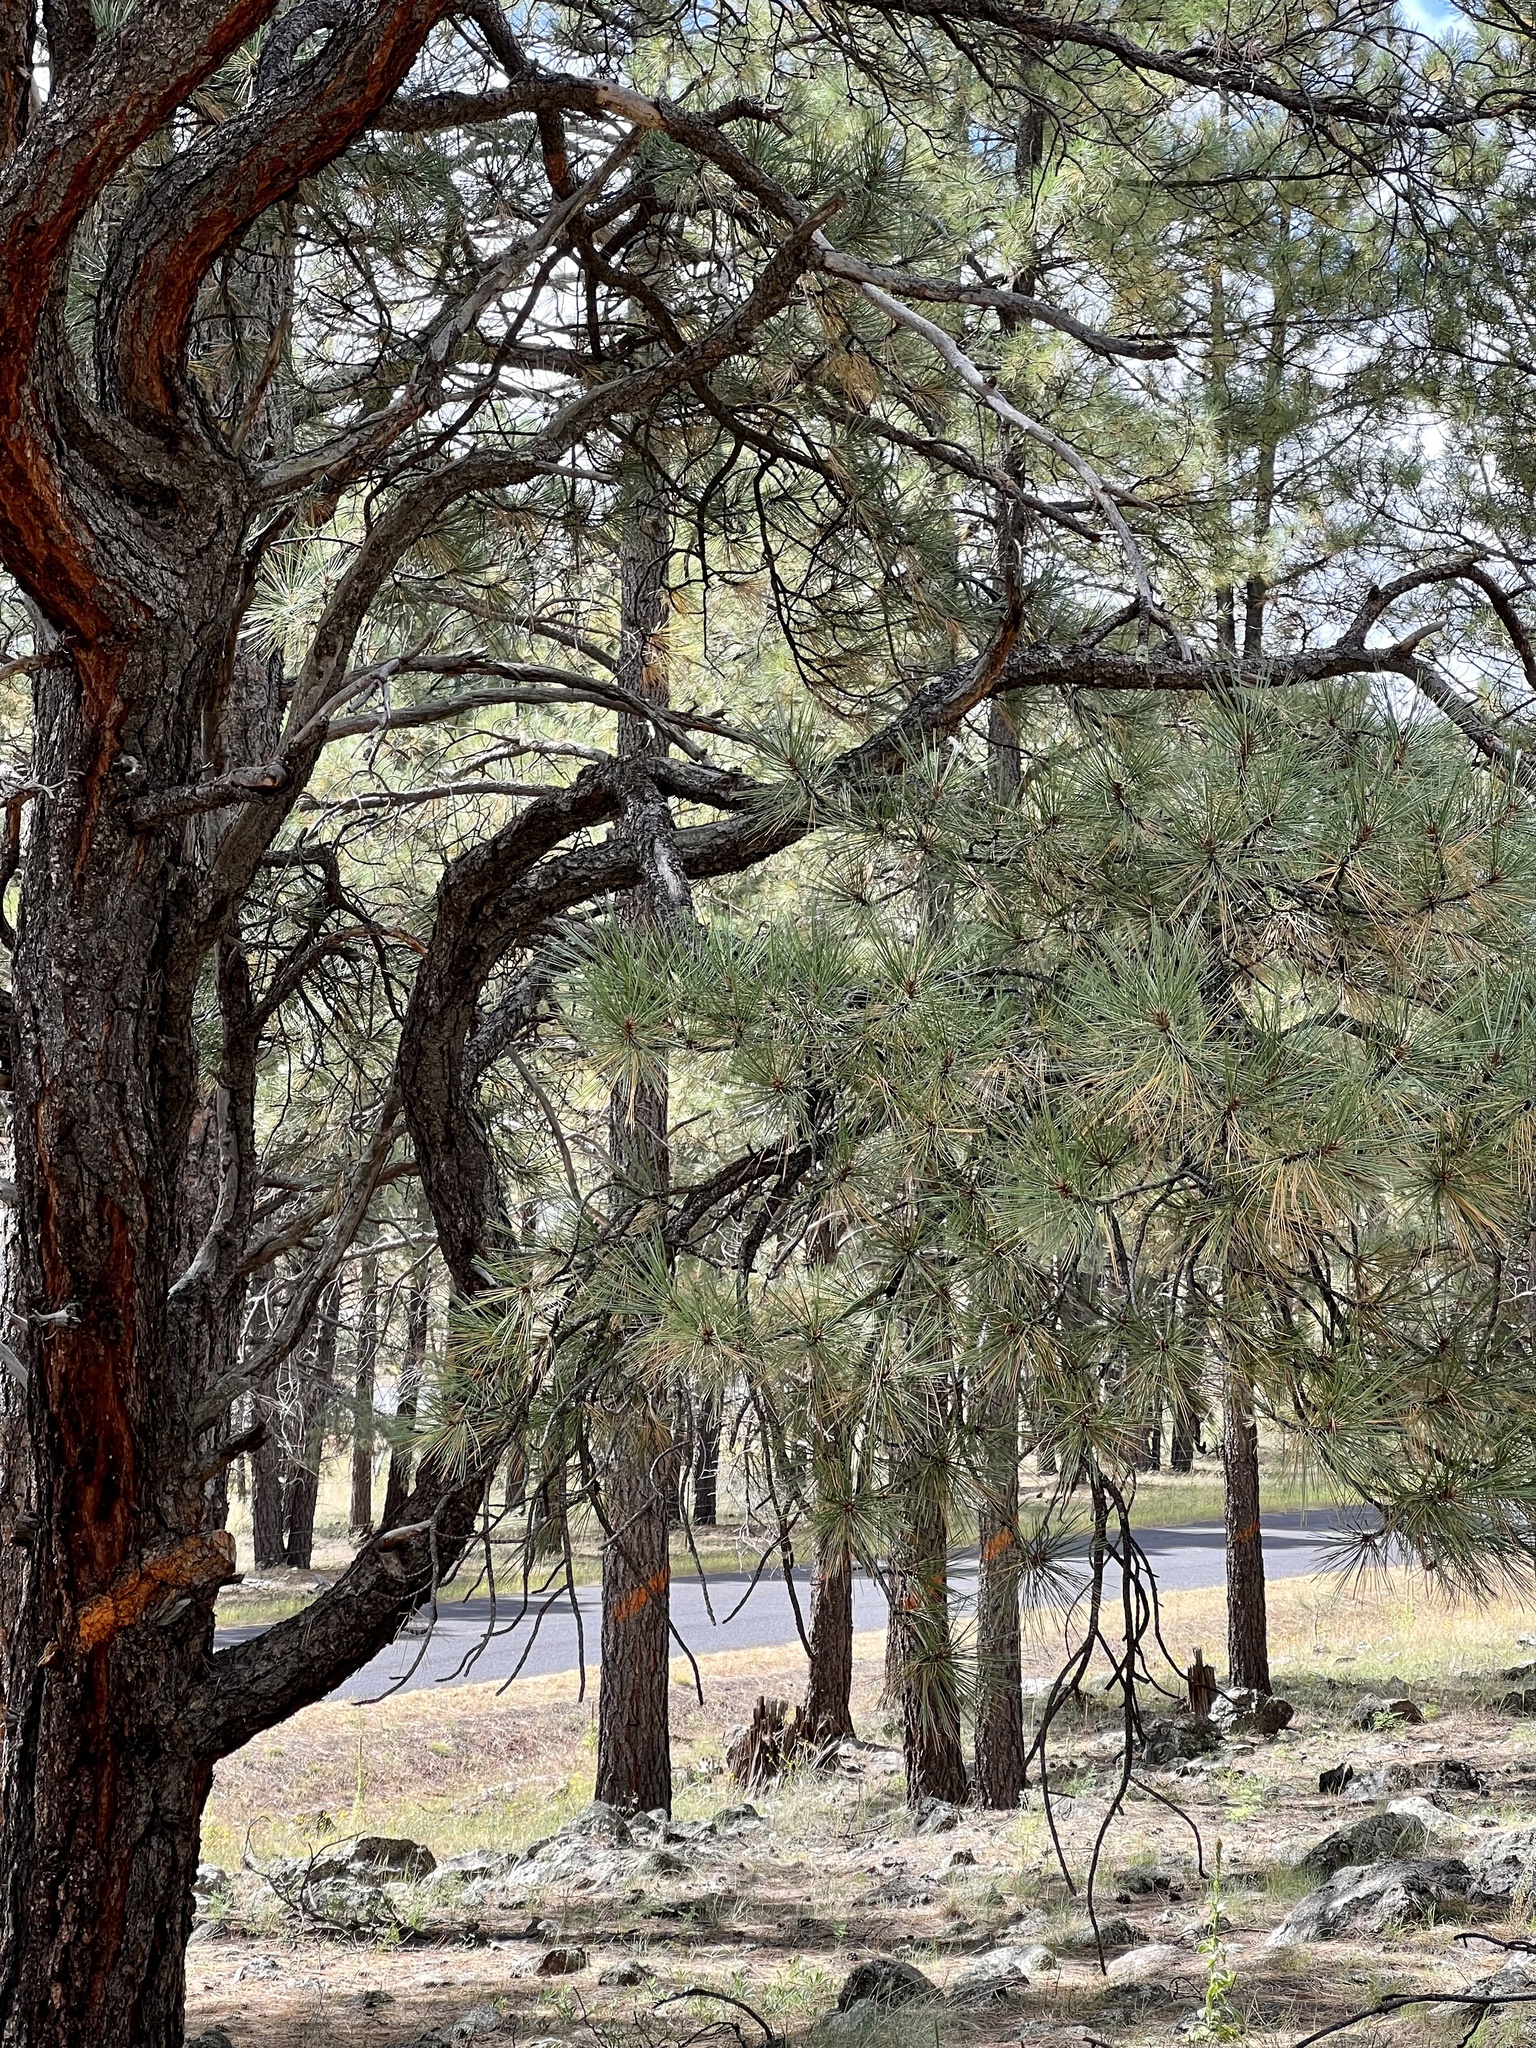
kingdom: Plantae
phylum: Tracheophyta
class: Pinopsida
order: Pinales
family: Pinaceae
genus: Pinus
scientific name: Pinus ponderosa
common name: Western yellow-pine
